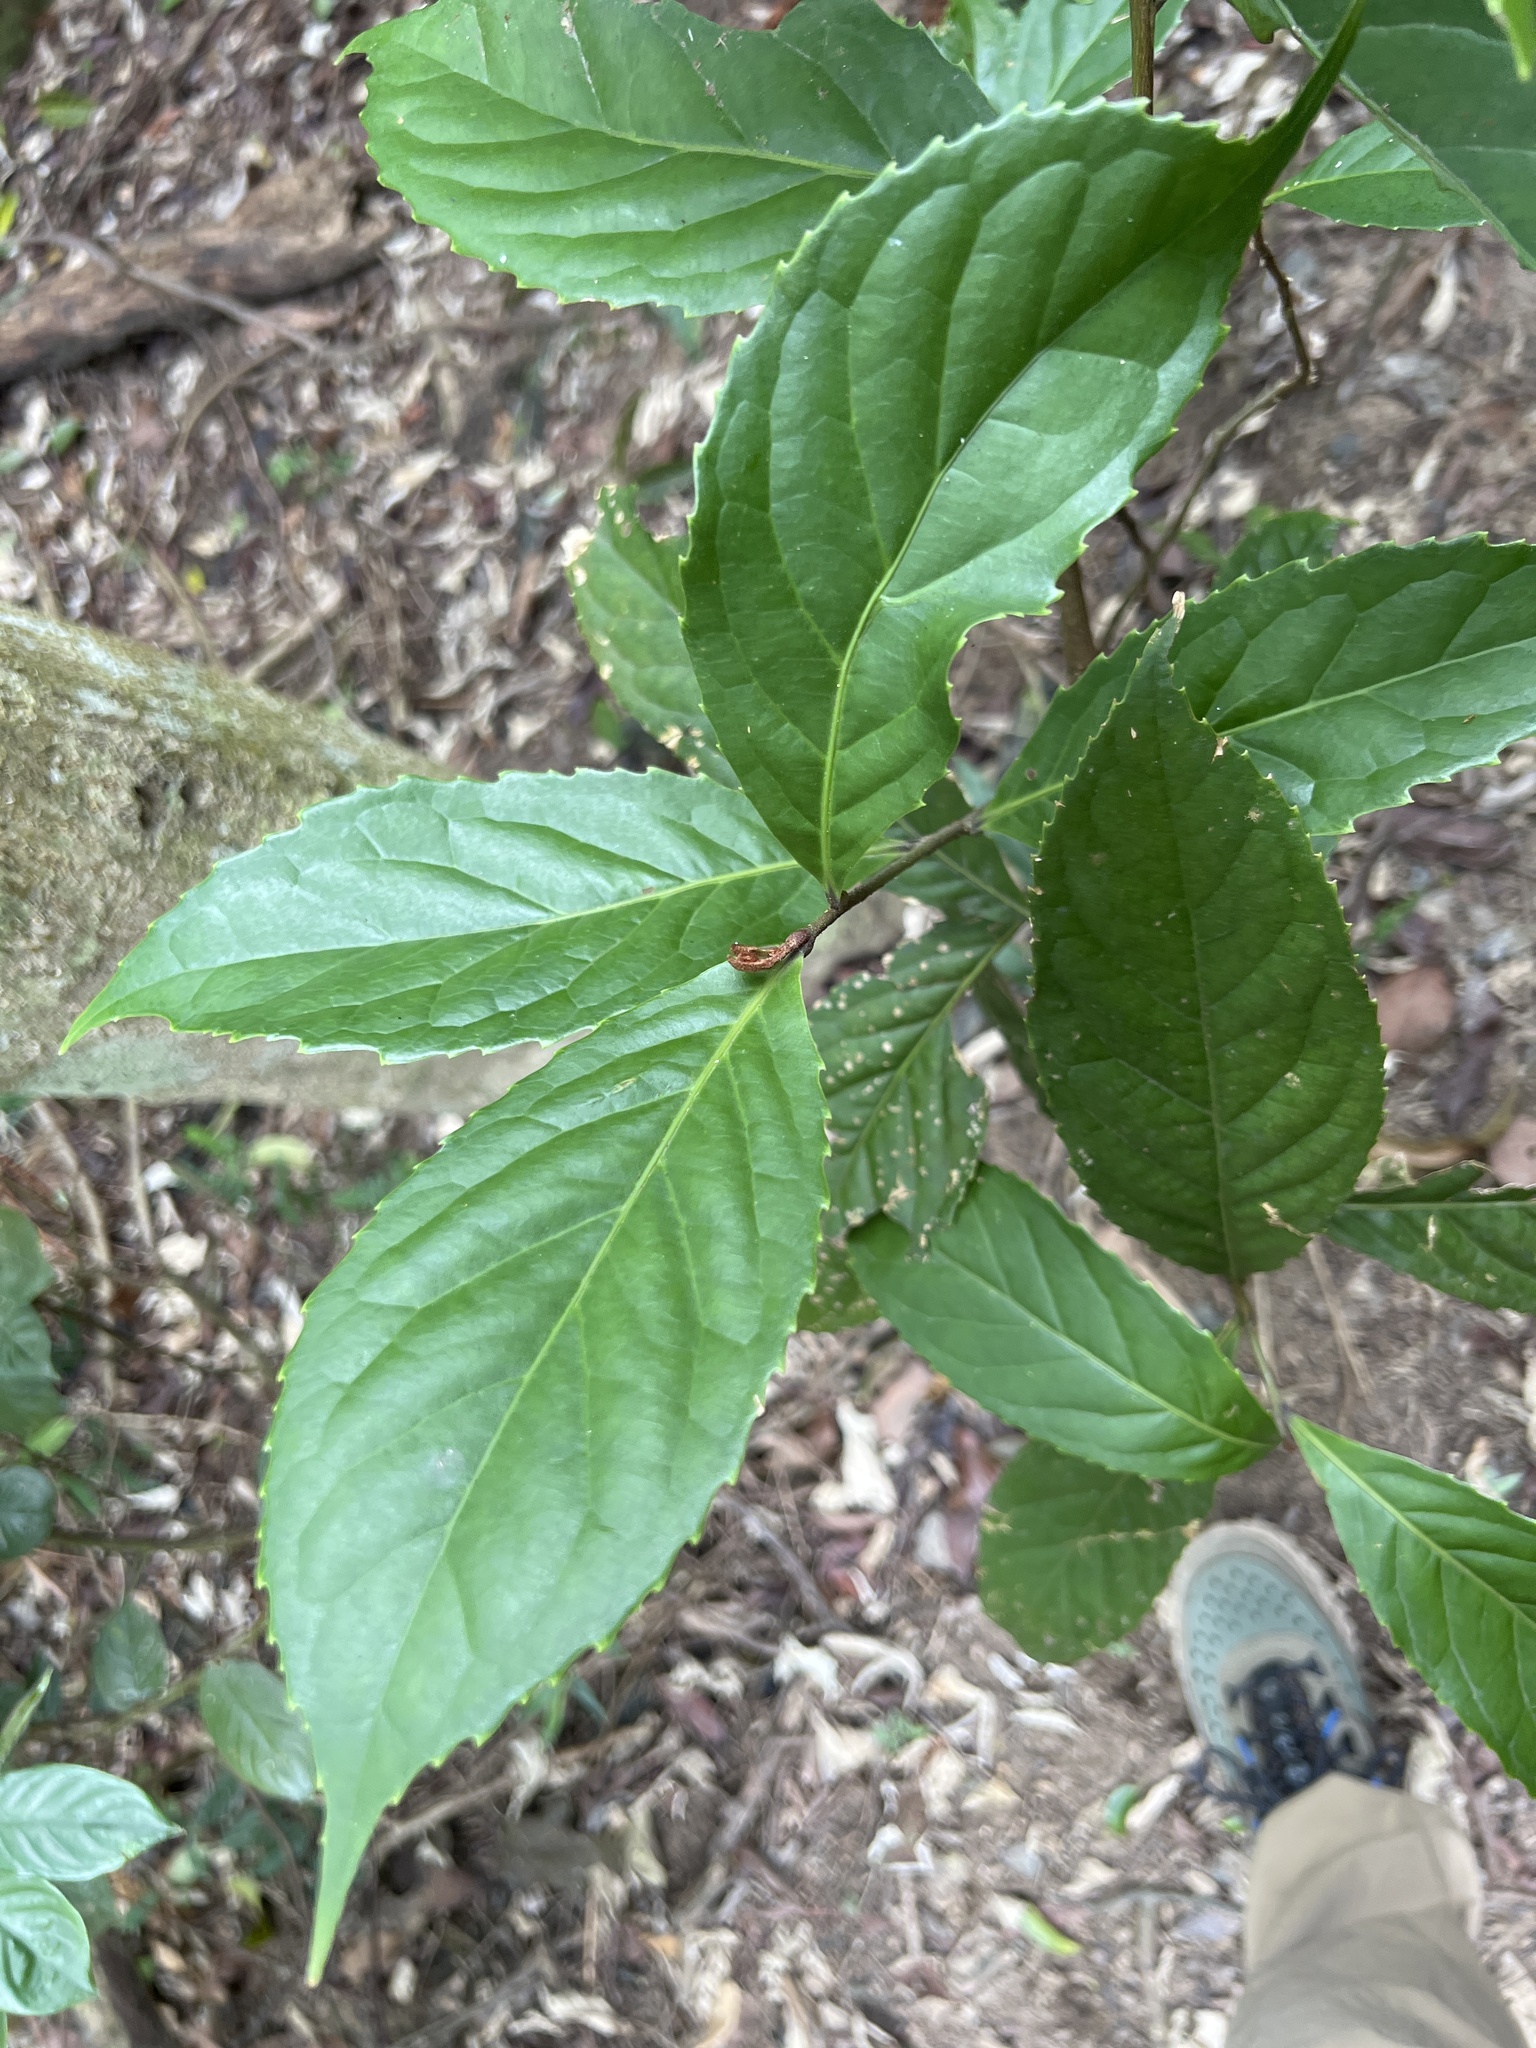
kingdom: Plantae
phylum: Tracheophyta
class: Magnoliopsida
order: Proteales
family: Proteaceae
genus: Helicia
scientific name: Helicia formosana
